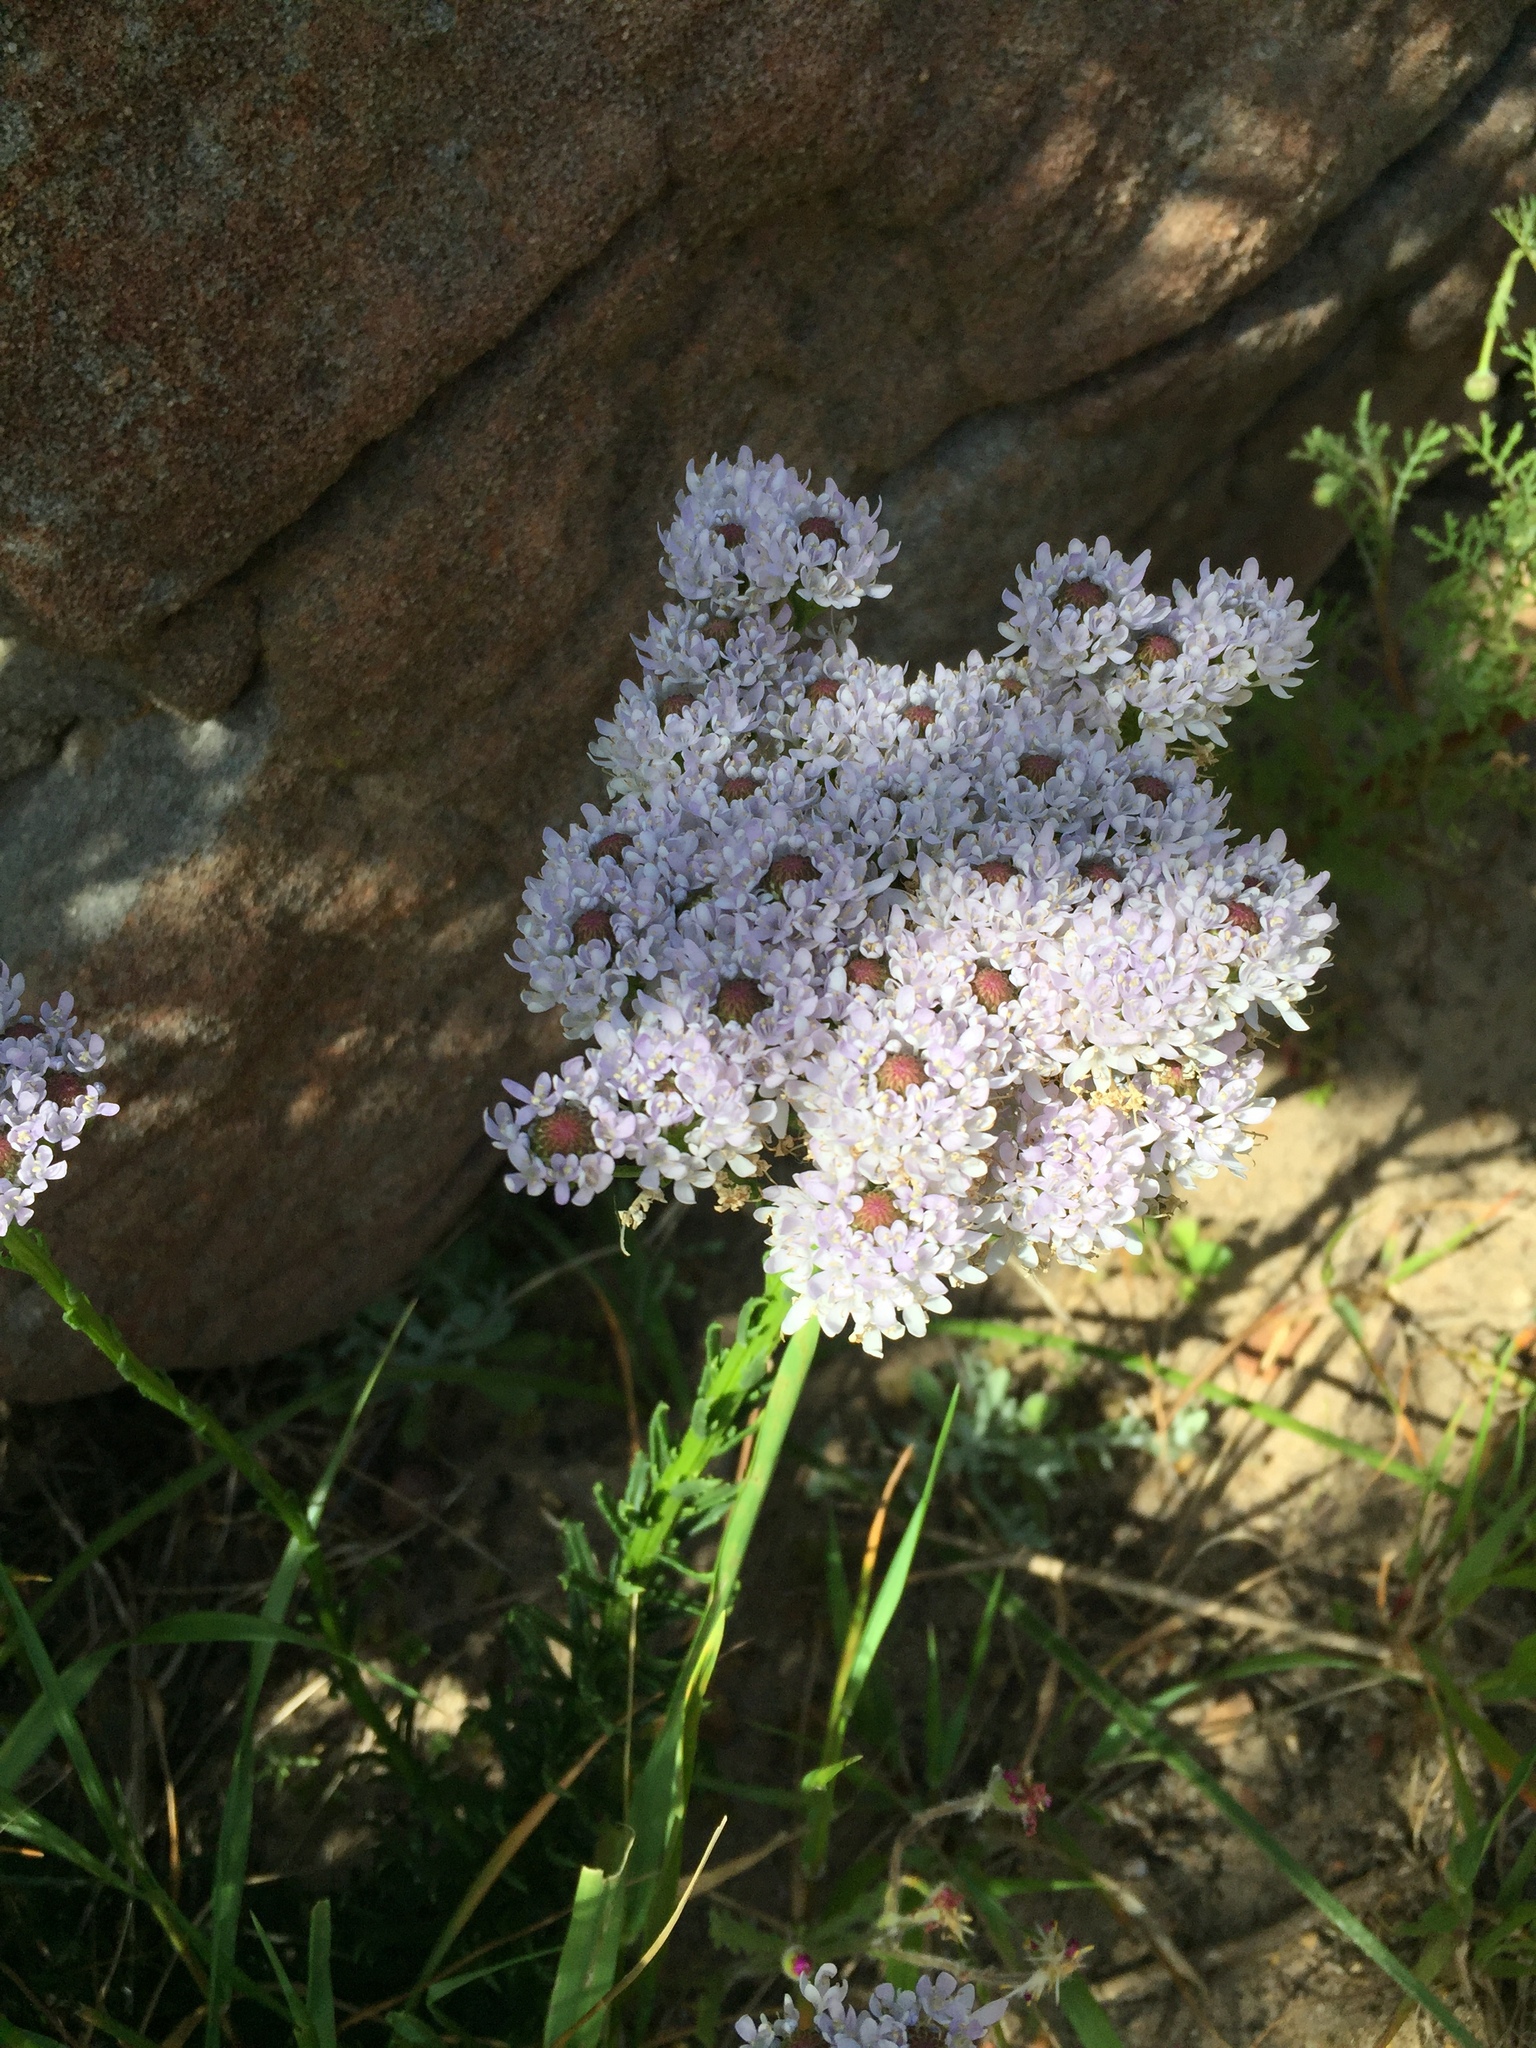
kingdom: Plantae
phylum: Tracheophyta
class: Magnoliopsida
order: Lamiales
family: Scrophulariaceae
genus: Pseudoselago
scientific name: Pseudoselago spuria
